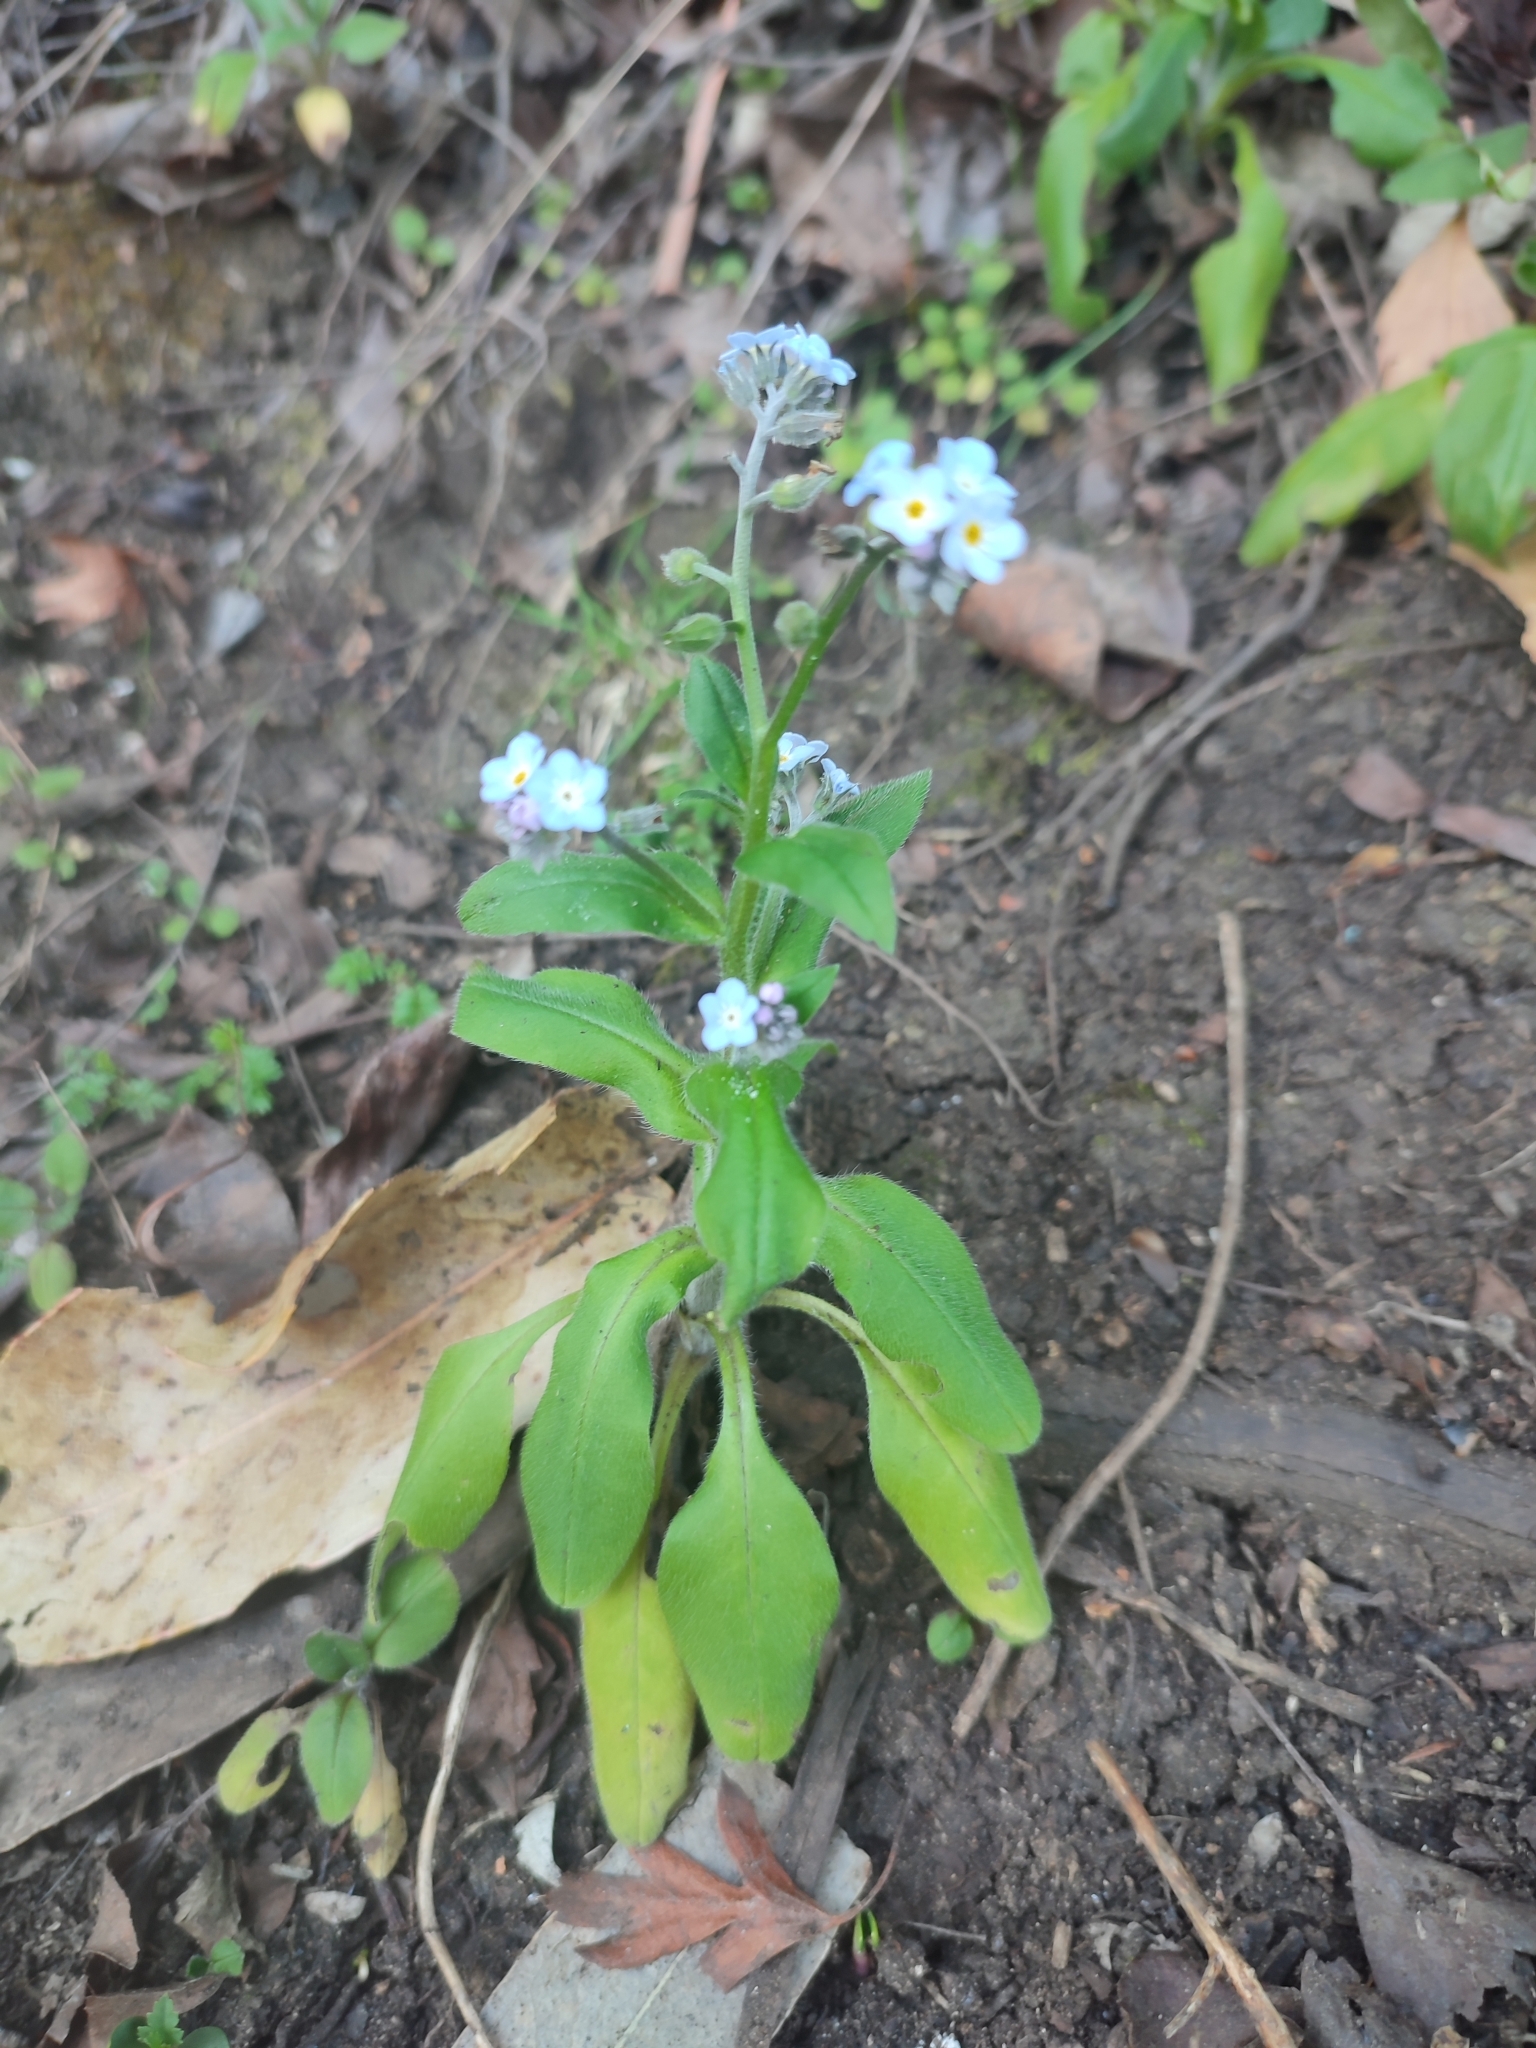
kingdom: Plantae
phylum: Tracheophyta
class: Magnoliopsida
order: Boraginales
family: Boraginaceae
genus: Myosotis
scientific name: Myosotis sylvatica
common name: Wood forget-me-not
